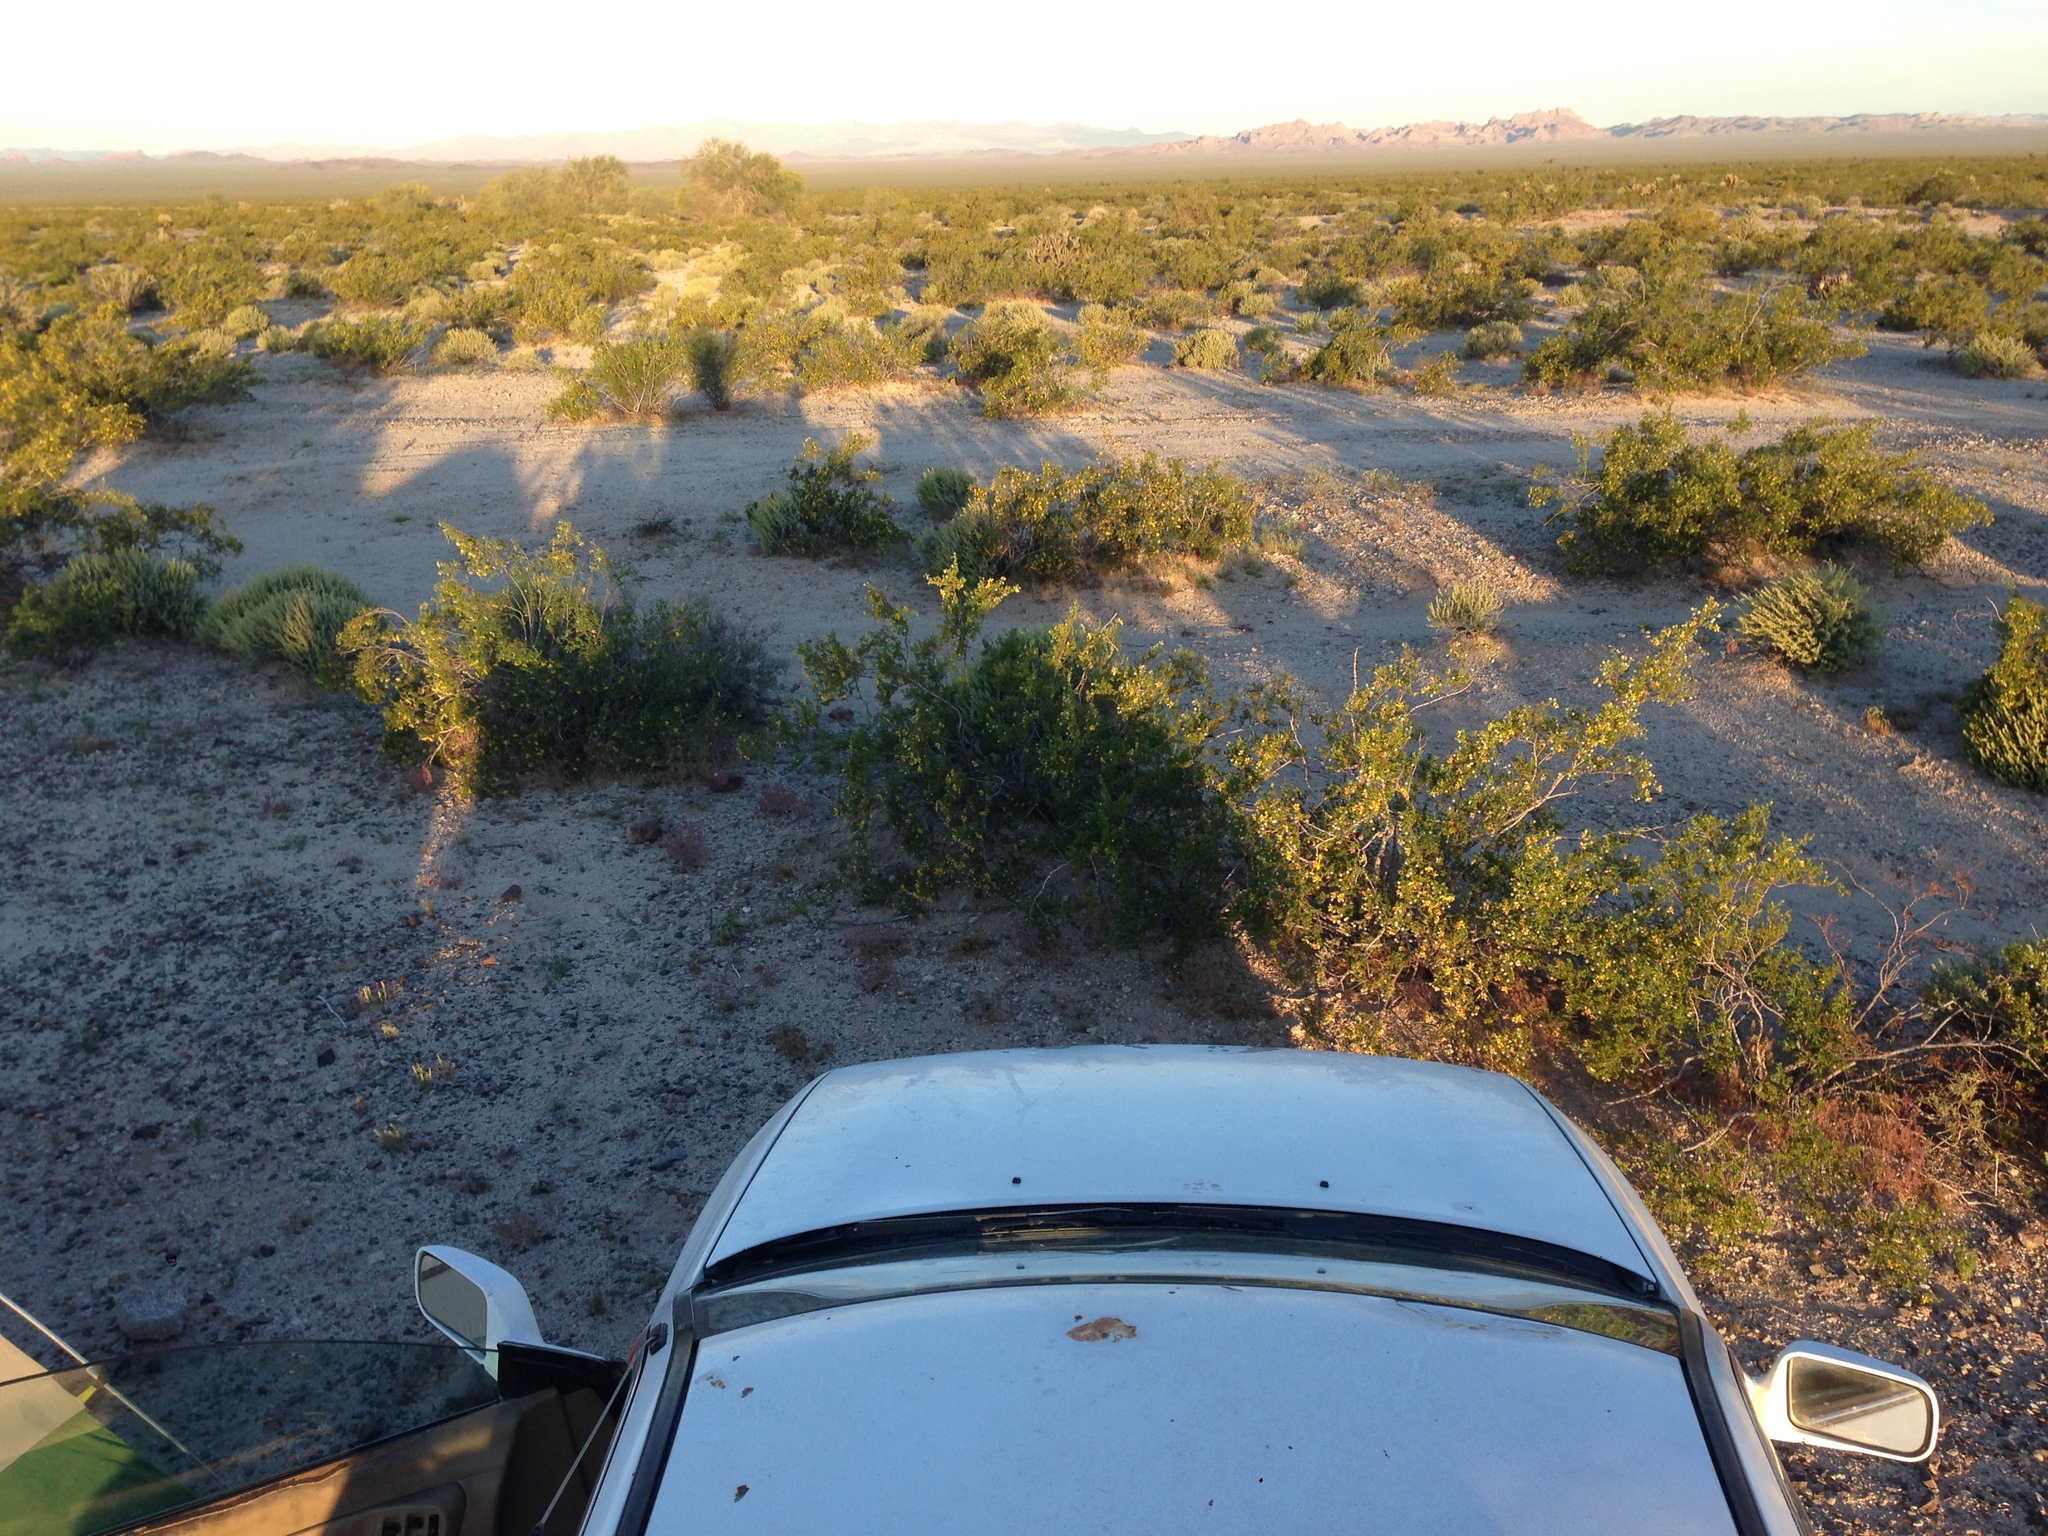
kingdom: Plantae
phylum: Tracheophyta
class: Magnoliopsida
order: Zygophyllales
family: Zygophyllaceae
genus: Larrea
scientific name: Larrea tridentata
